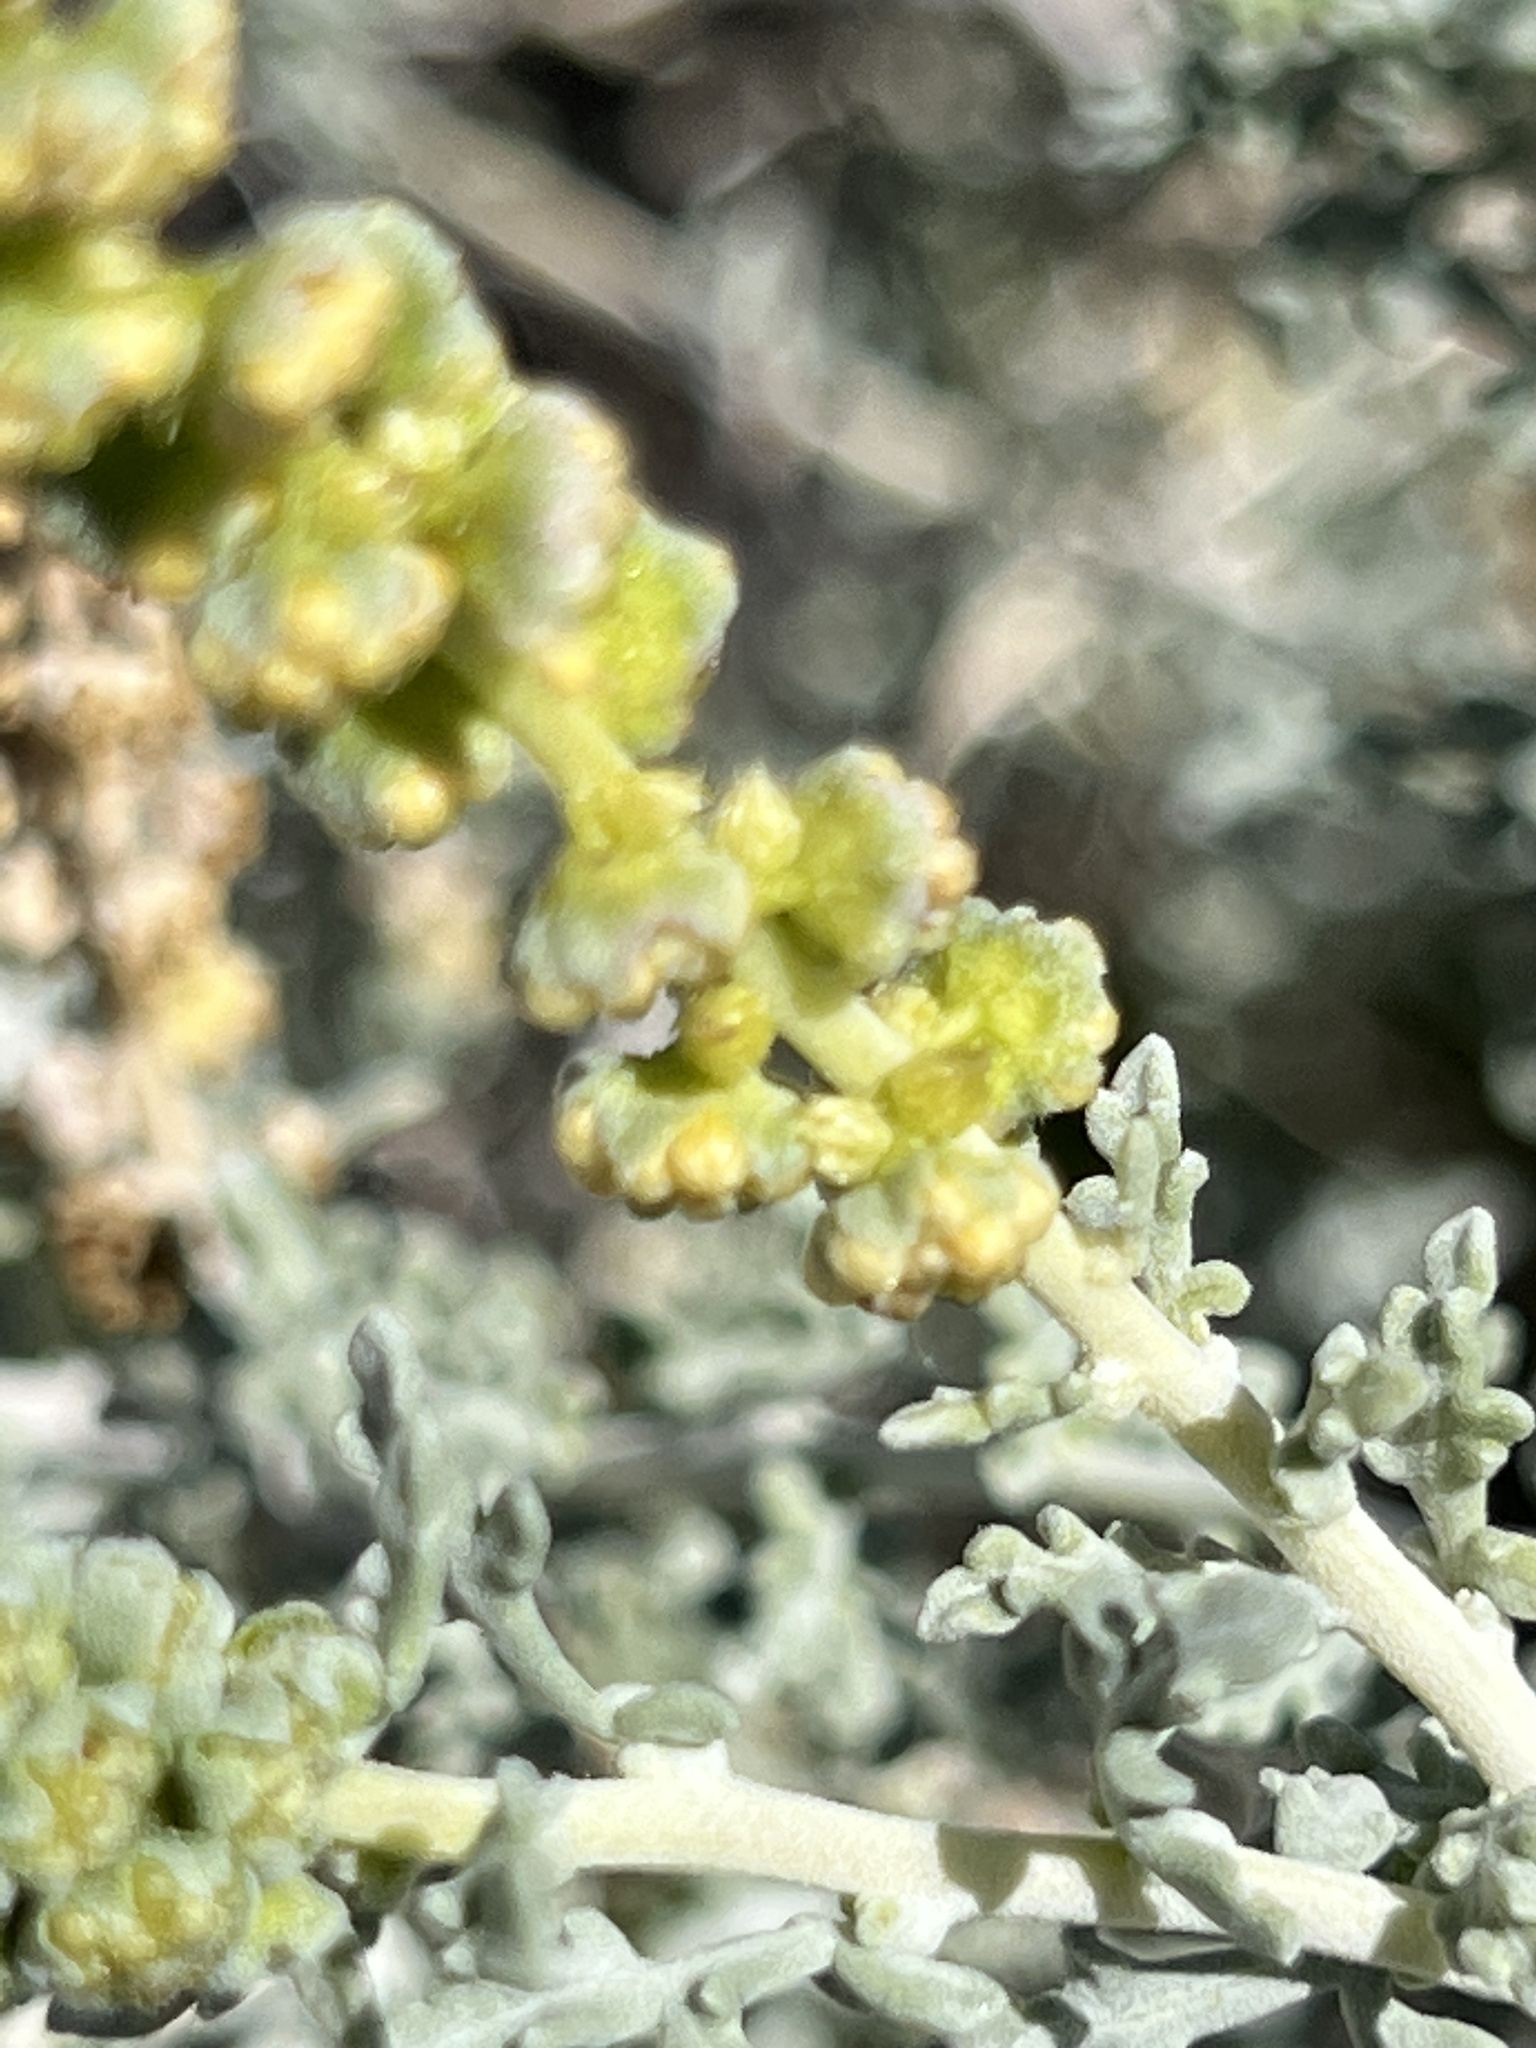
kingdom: Plantae
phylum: Tracheophyta
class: Magnoliopsida
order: Asterales
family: Asteraceae
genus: Ambrosia
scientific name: Ambrosia dumosa
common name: Bur-sage
